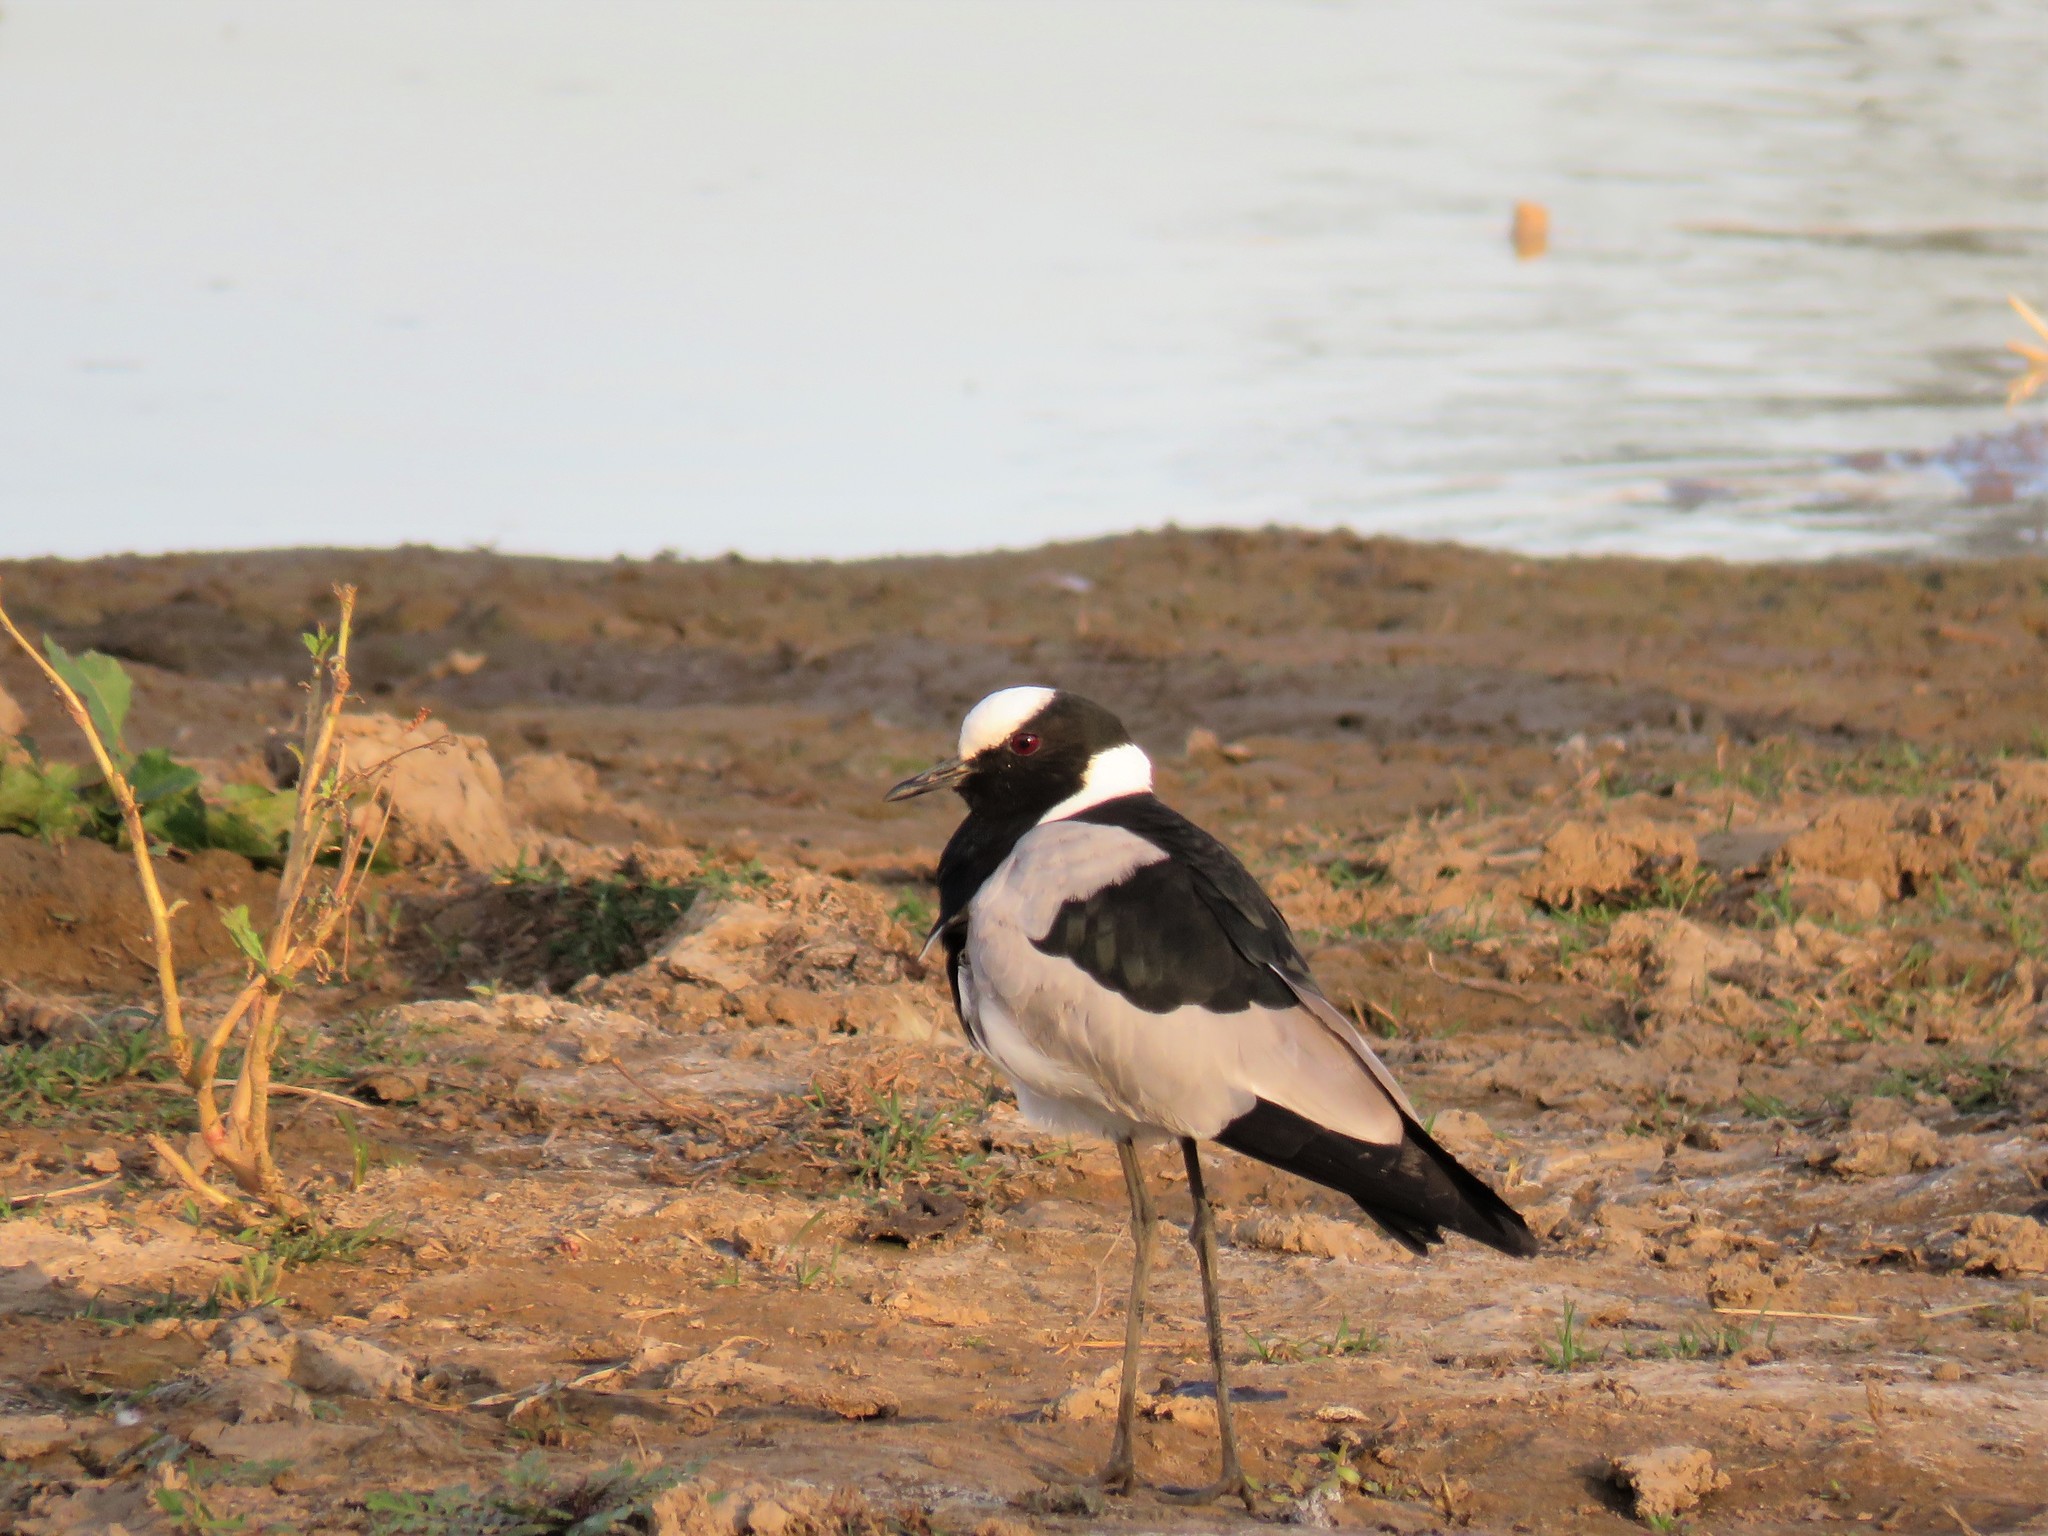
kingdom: Animalia
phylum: Chordata
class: Aves
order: Charadriiformes
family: Charadriidae
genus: Vanellus
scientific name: Vanellus armatus
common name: Blacksmith lapwing
